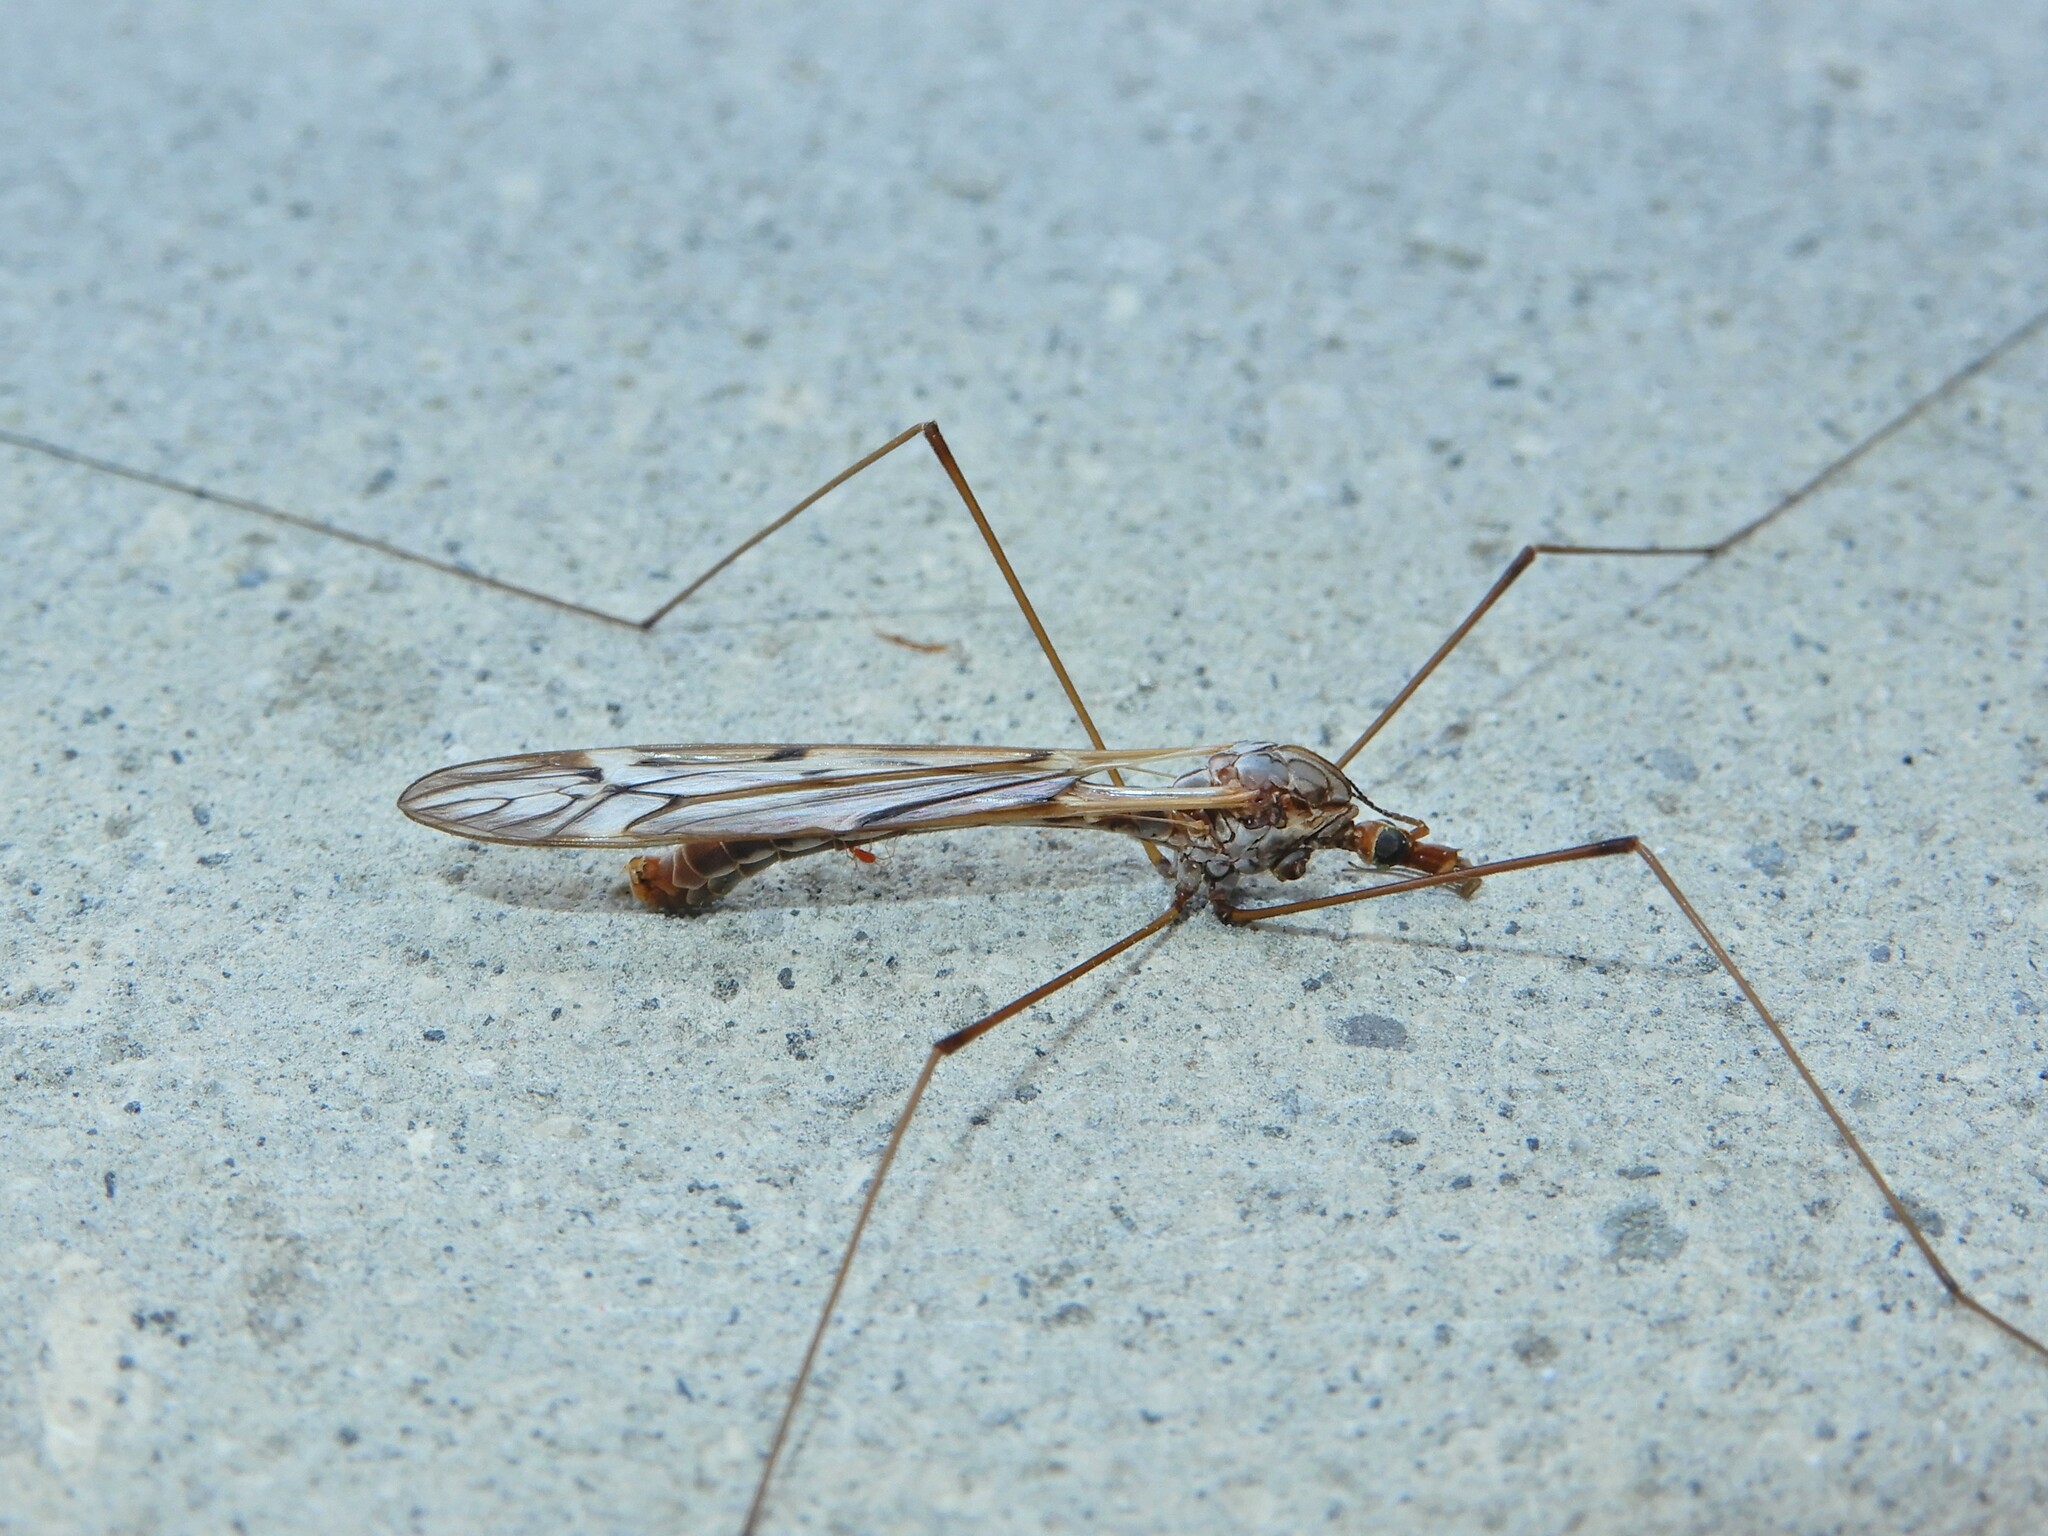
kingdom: Animalia
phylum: Arthropoda
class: Insecta
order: Diptera
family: Tipulidae
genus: Zelandotipula
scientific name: Zelandotipula novarae
